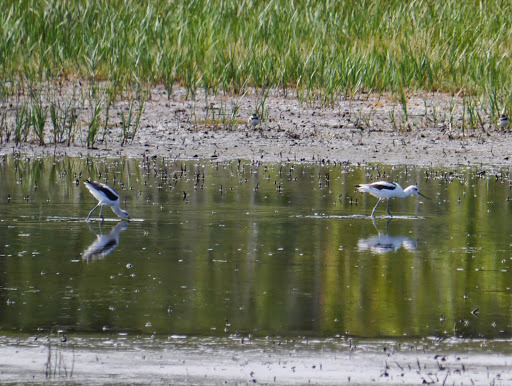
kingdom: Animalia
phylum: Chordata
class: Aves
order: Charadriiformes
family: Recurvirostridae
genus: Recurvirostra
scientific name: Recurvirostra americana
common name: American avocet
